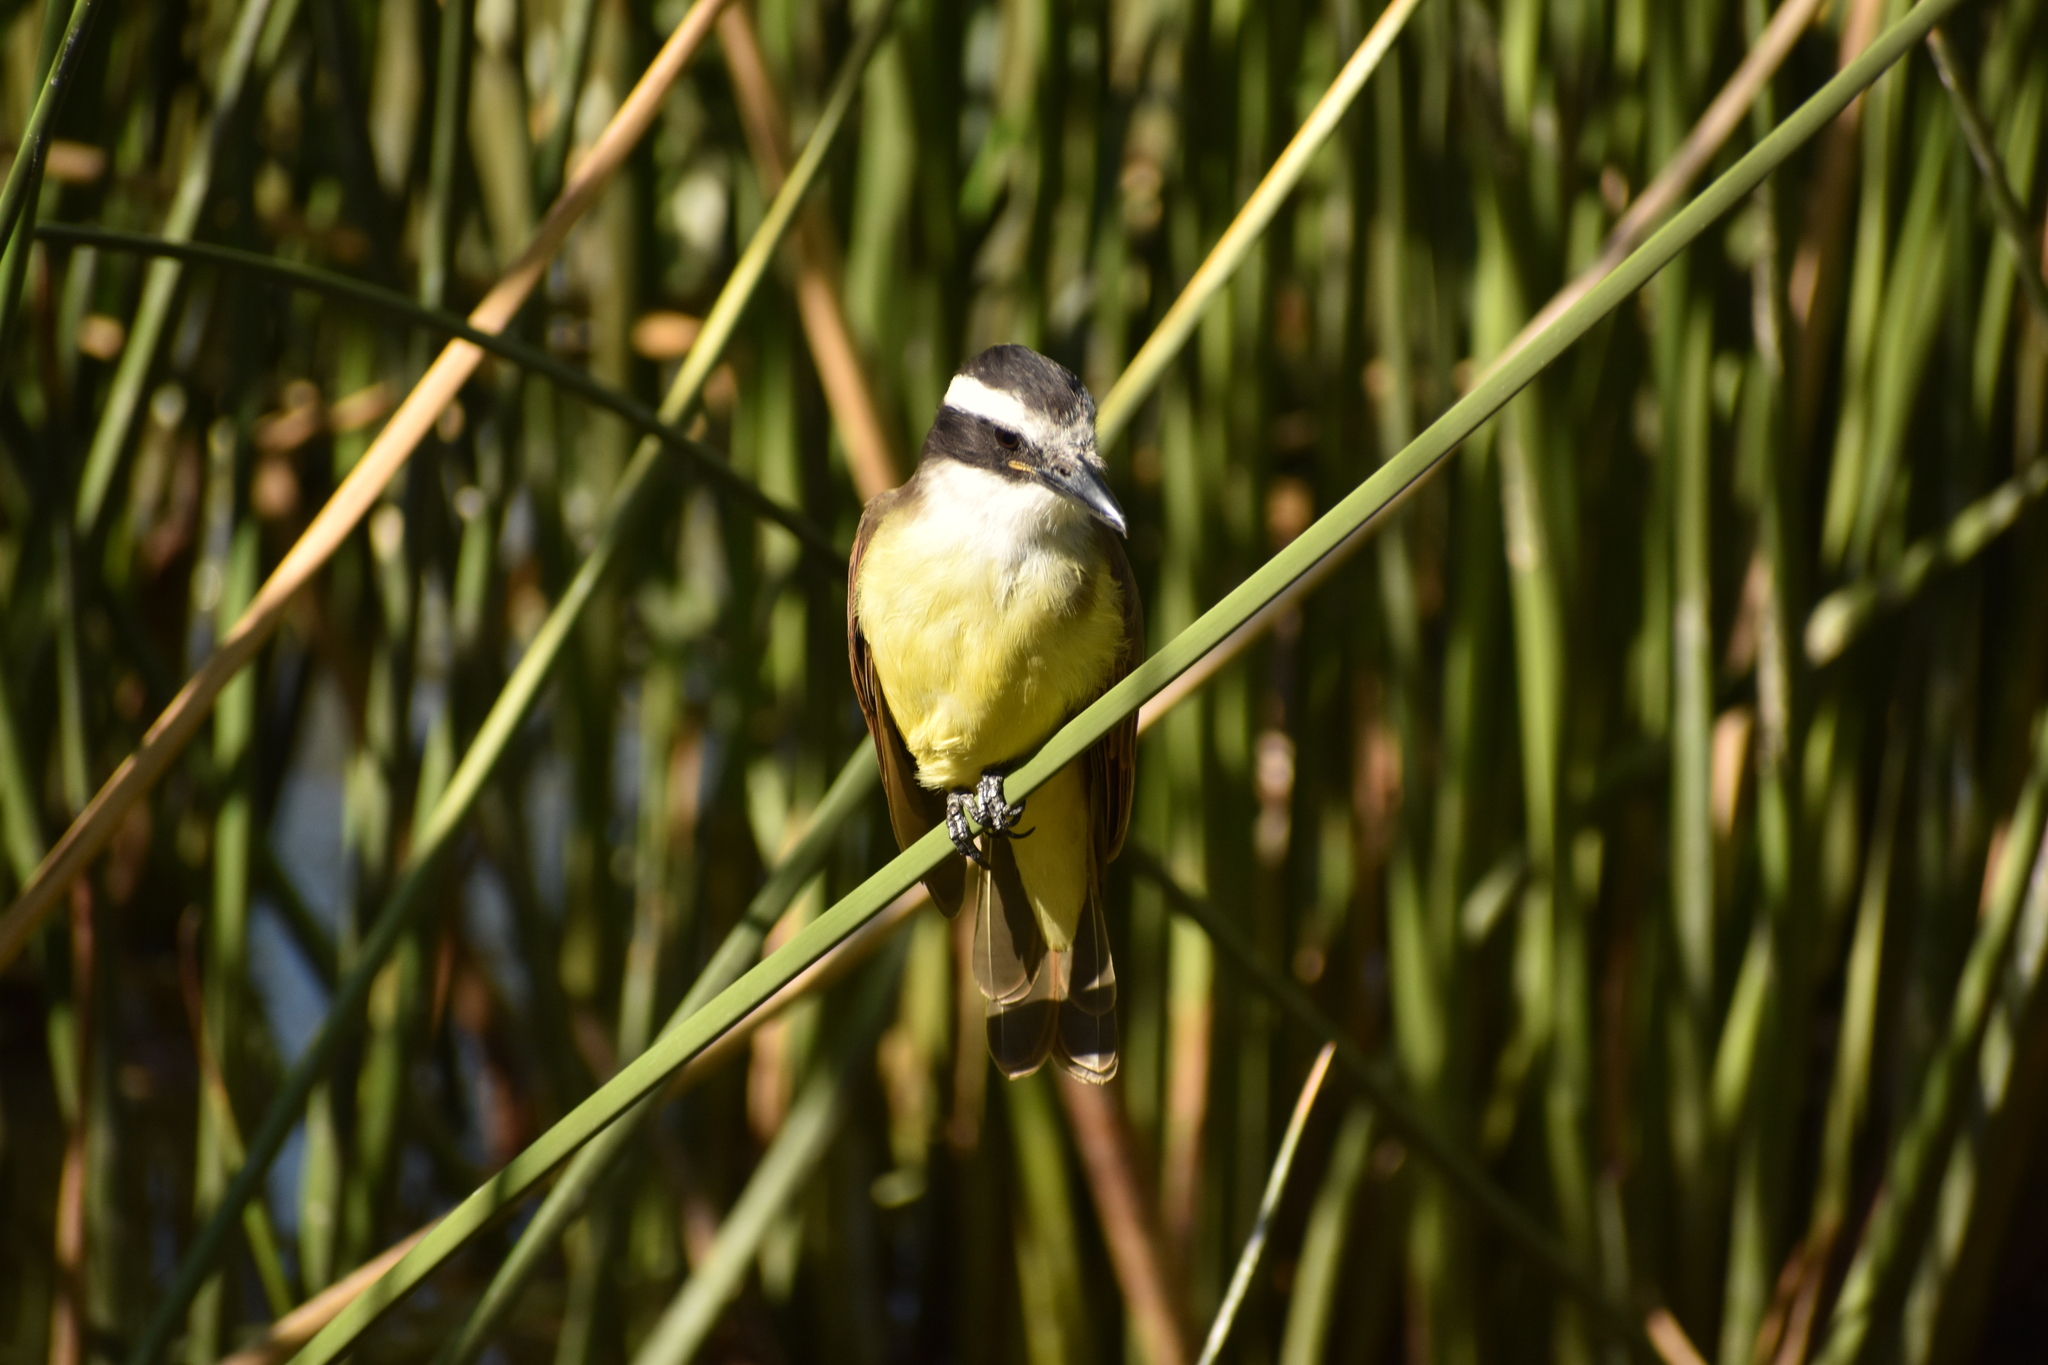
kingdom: Animalia
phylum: Chordata
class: Aves
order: Passeriformes
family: Tyrannidae
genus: Pitangus
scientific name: Pitangus sulphuratus
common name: Great kiskadee
